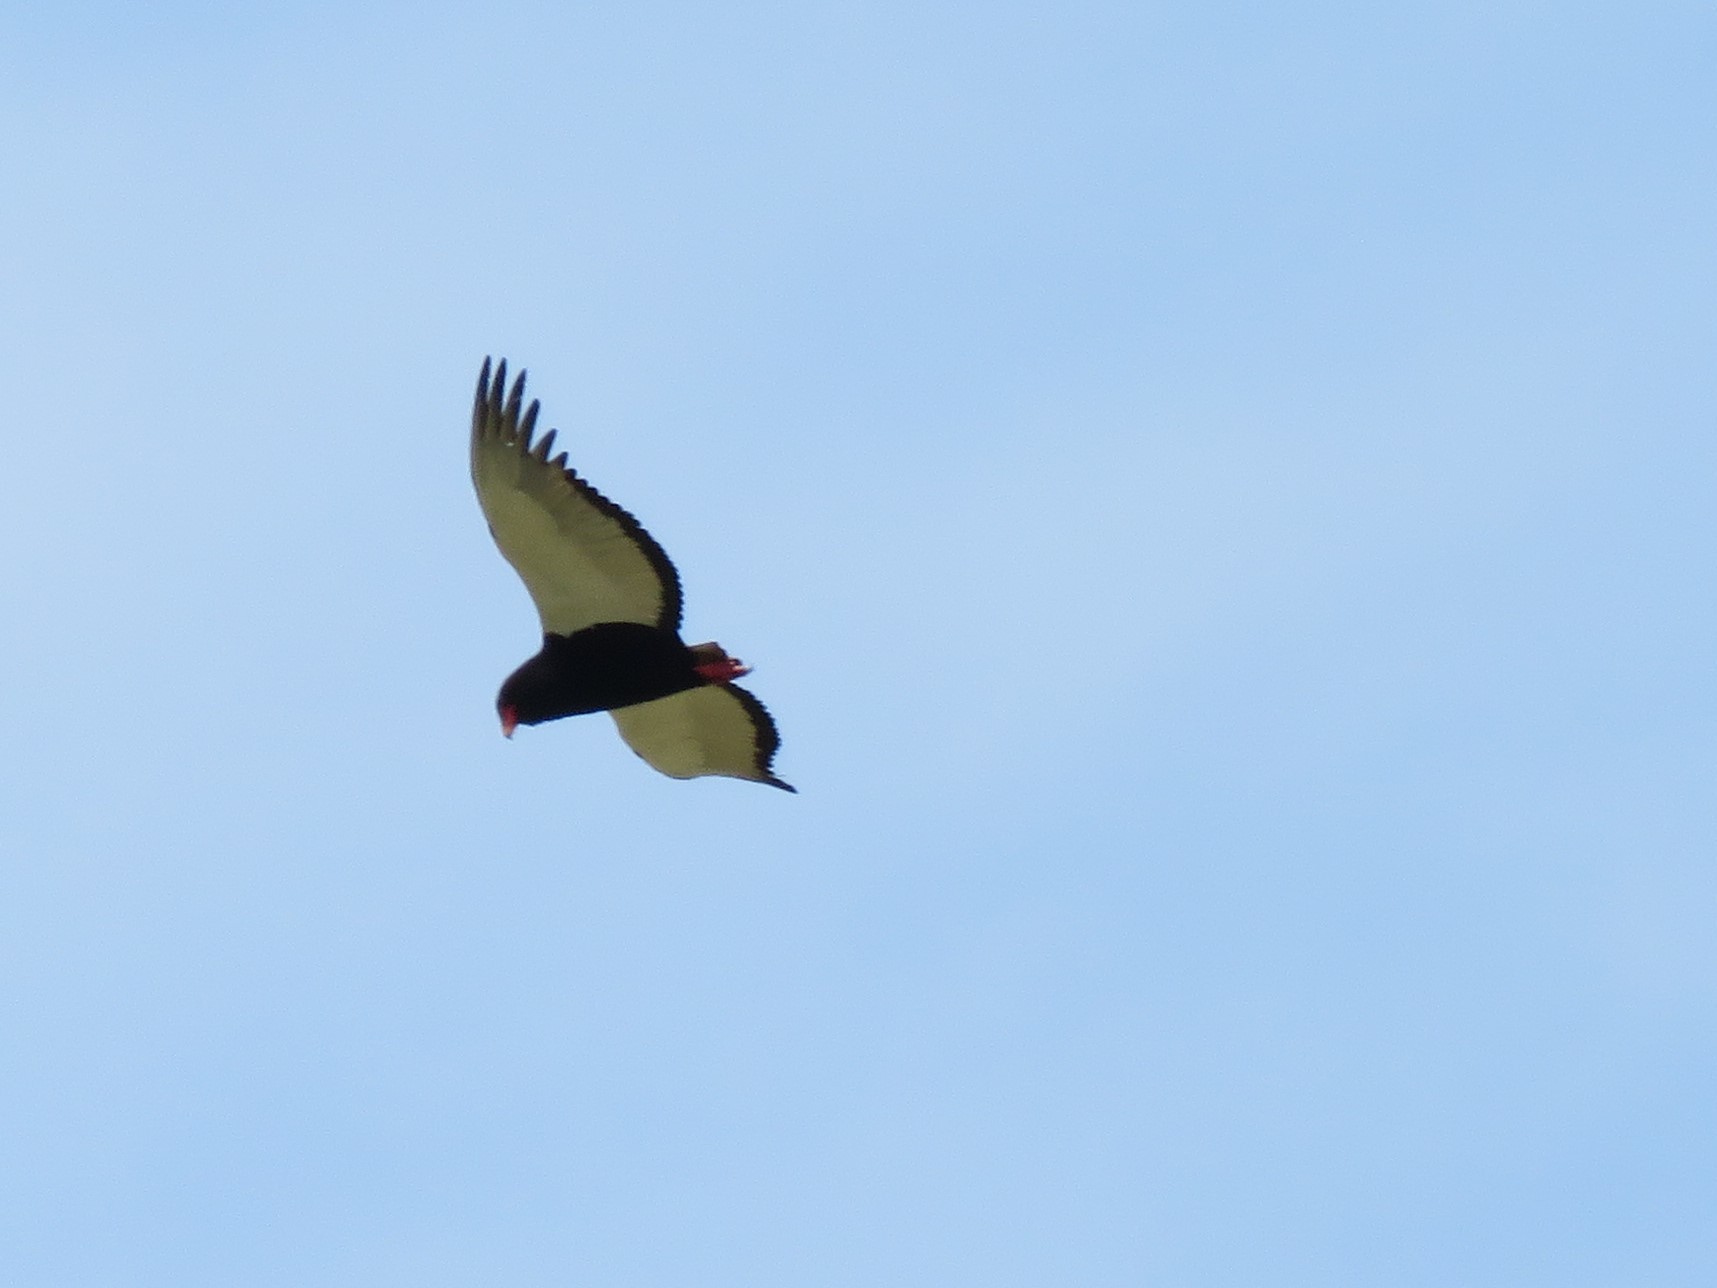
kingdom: Animalia
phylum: Chordata
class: Aves
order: Accipitriformes
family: Accipitridae
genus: Terathopius
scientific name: Terathopius ecaudatus
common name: Bateleur
